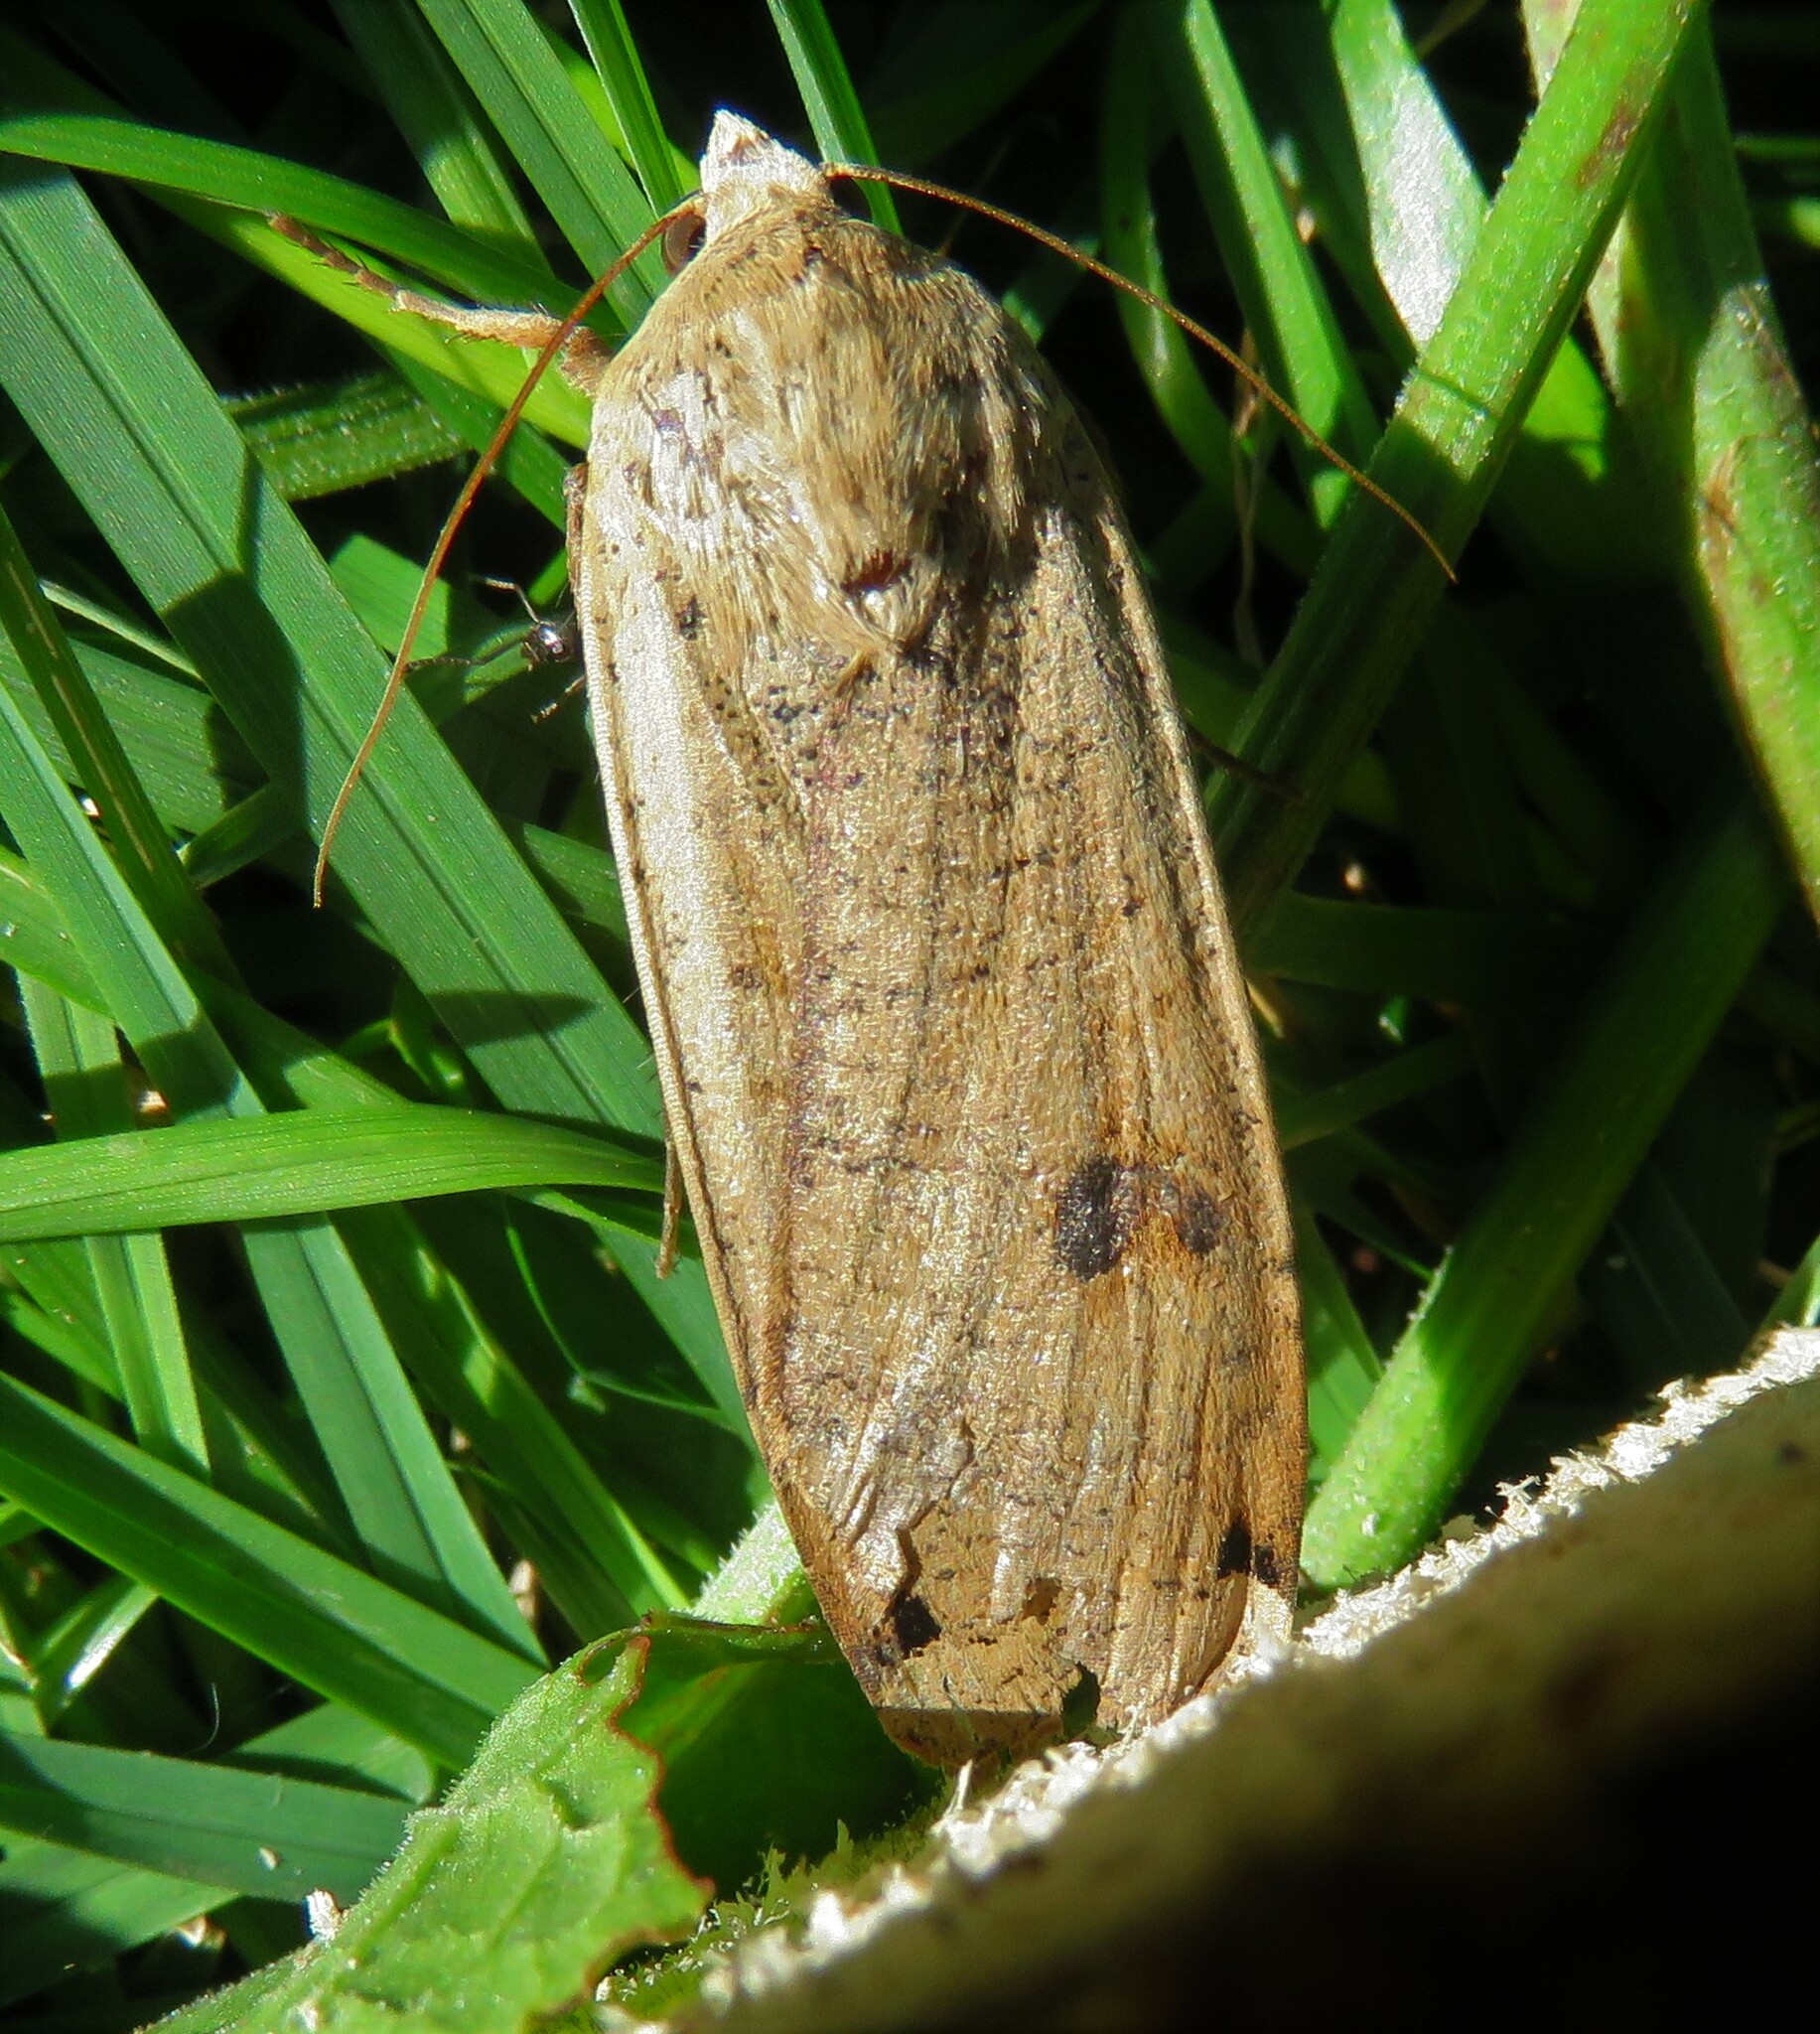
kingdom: Animalia
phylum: Arthropoda
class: Insecta
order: Lepidoptera
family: Noctuidae
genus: Noctua
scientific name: Noctua pronuba
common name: Large yellow underwing
